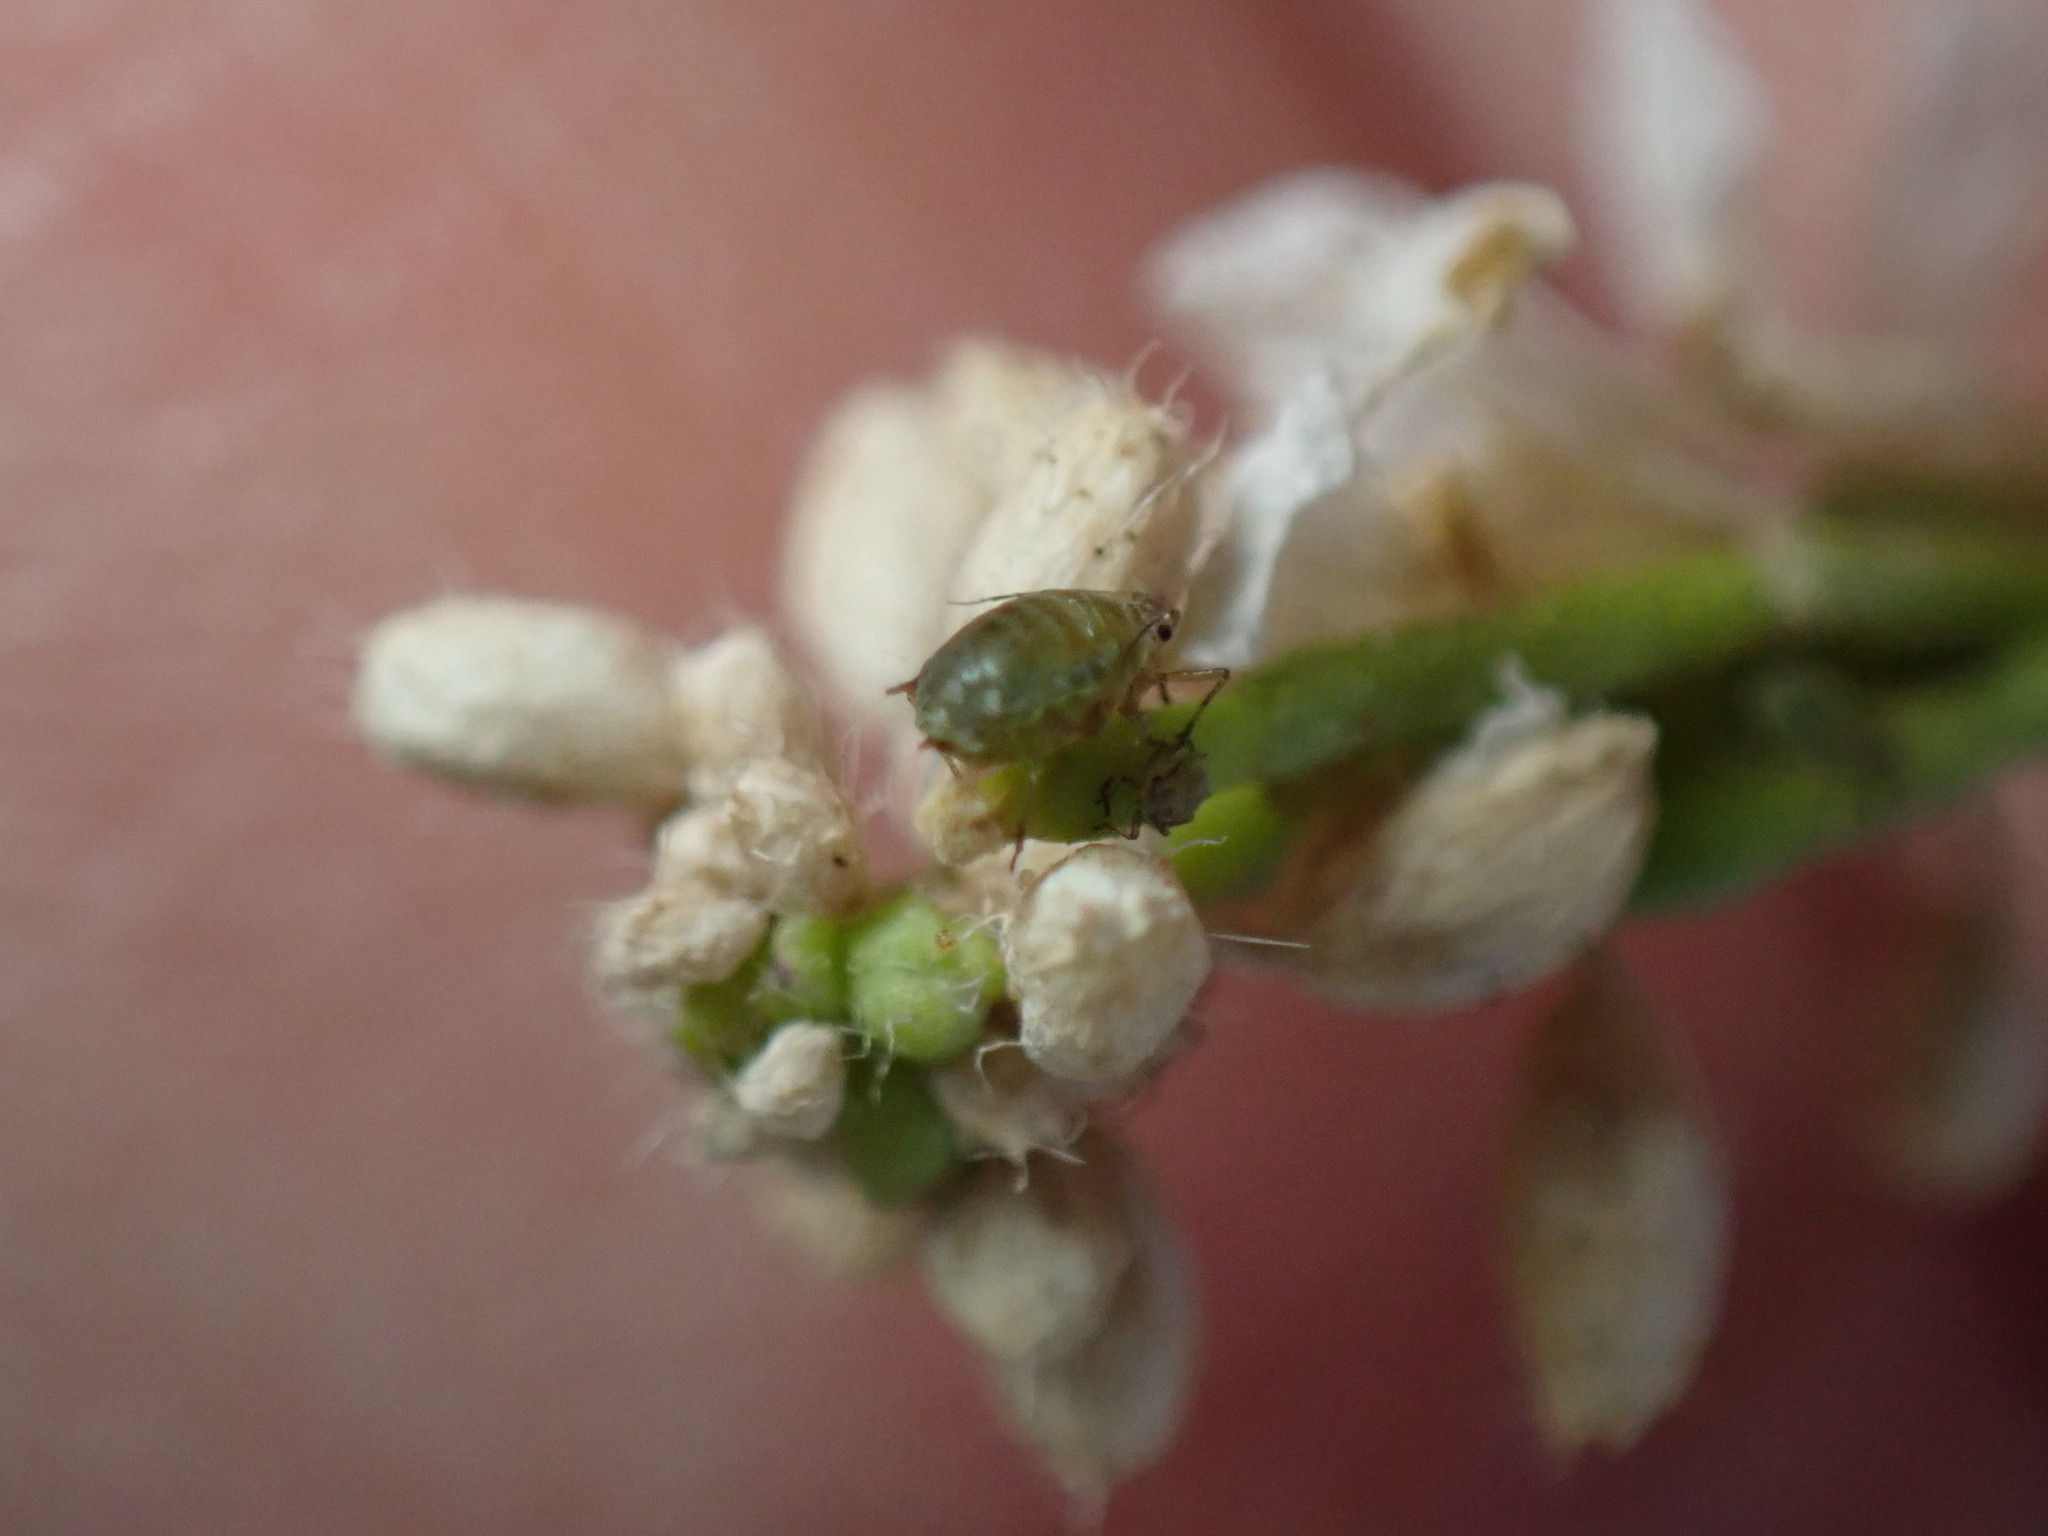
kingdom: Animalia
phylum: Arthropoda
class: Insecta
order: Hemiptera
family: Aphididae
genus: Lipaphis
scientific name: Lipaphis pseudobrassicae
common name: Turnip aphid
